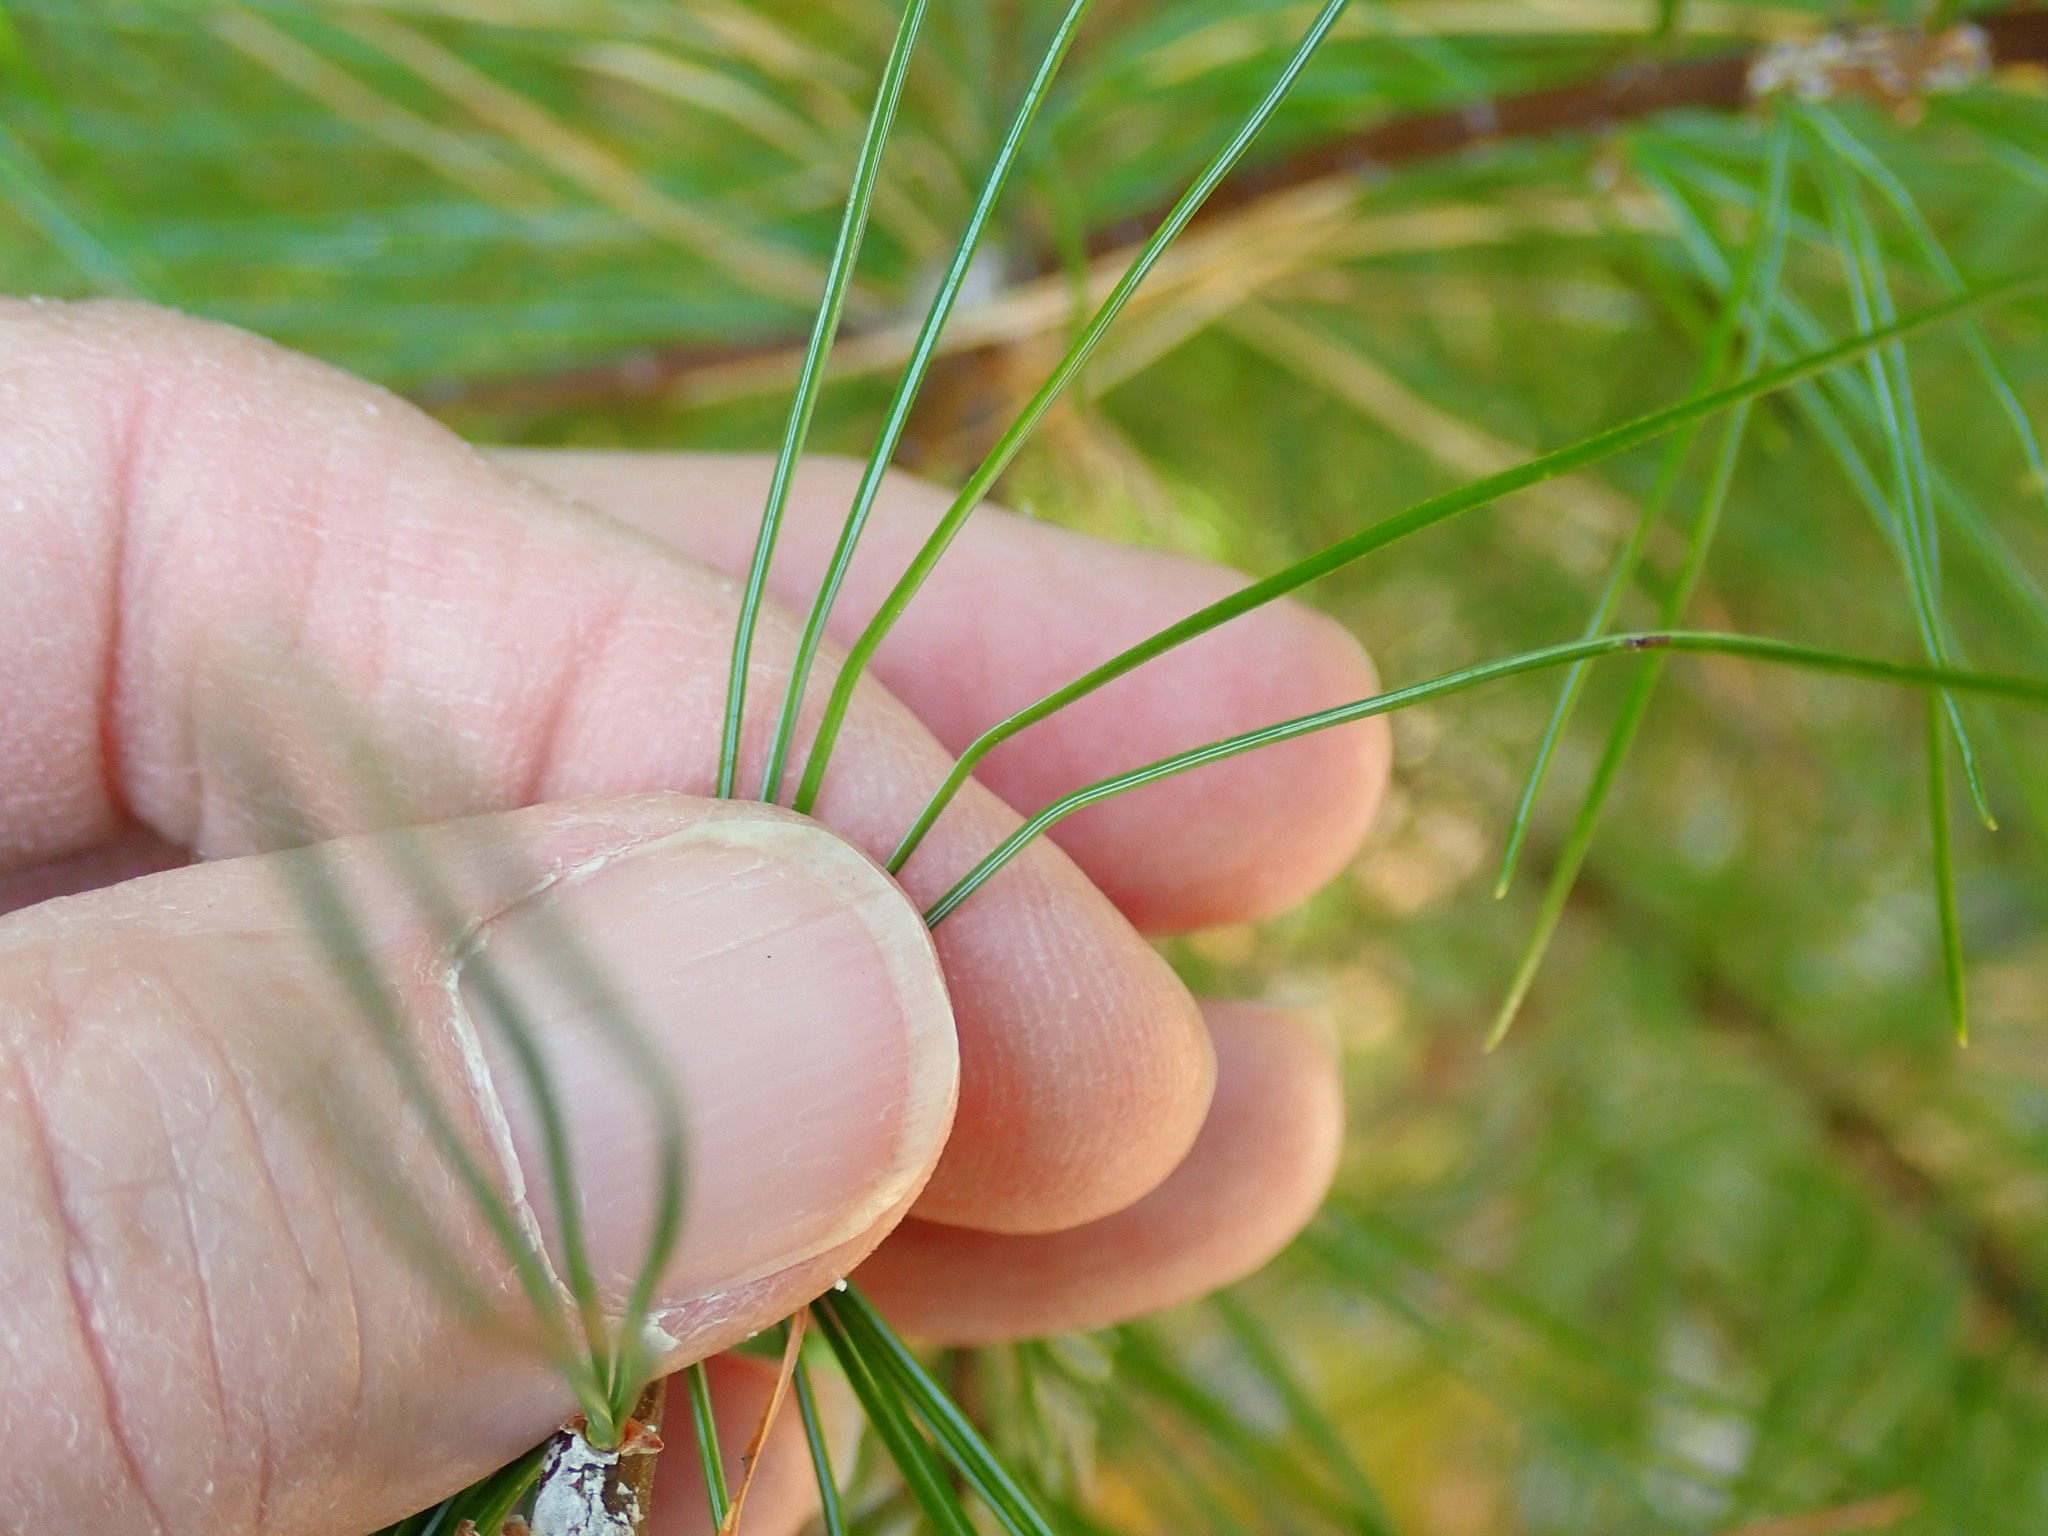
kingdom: Plantae
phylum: Tracheophyta
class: Pinopsida
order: Pinales
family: Pinaceae
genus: Pinus
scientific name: Pinus strobus
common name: Weymouth pine
